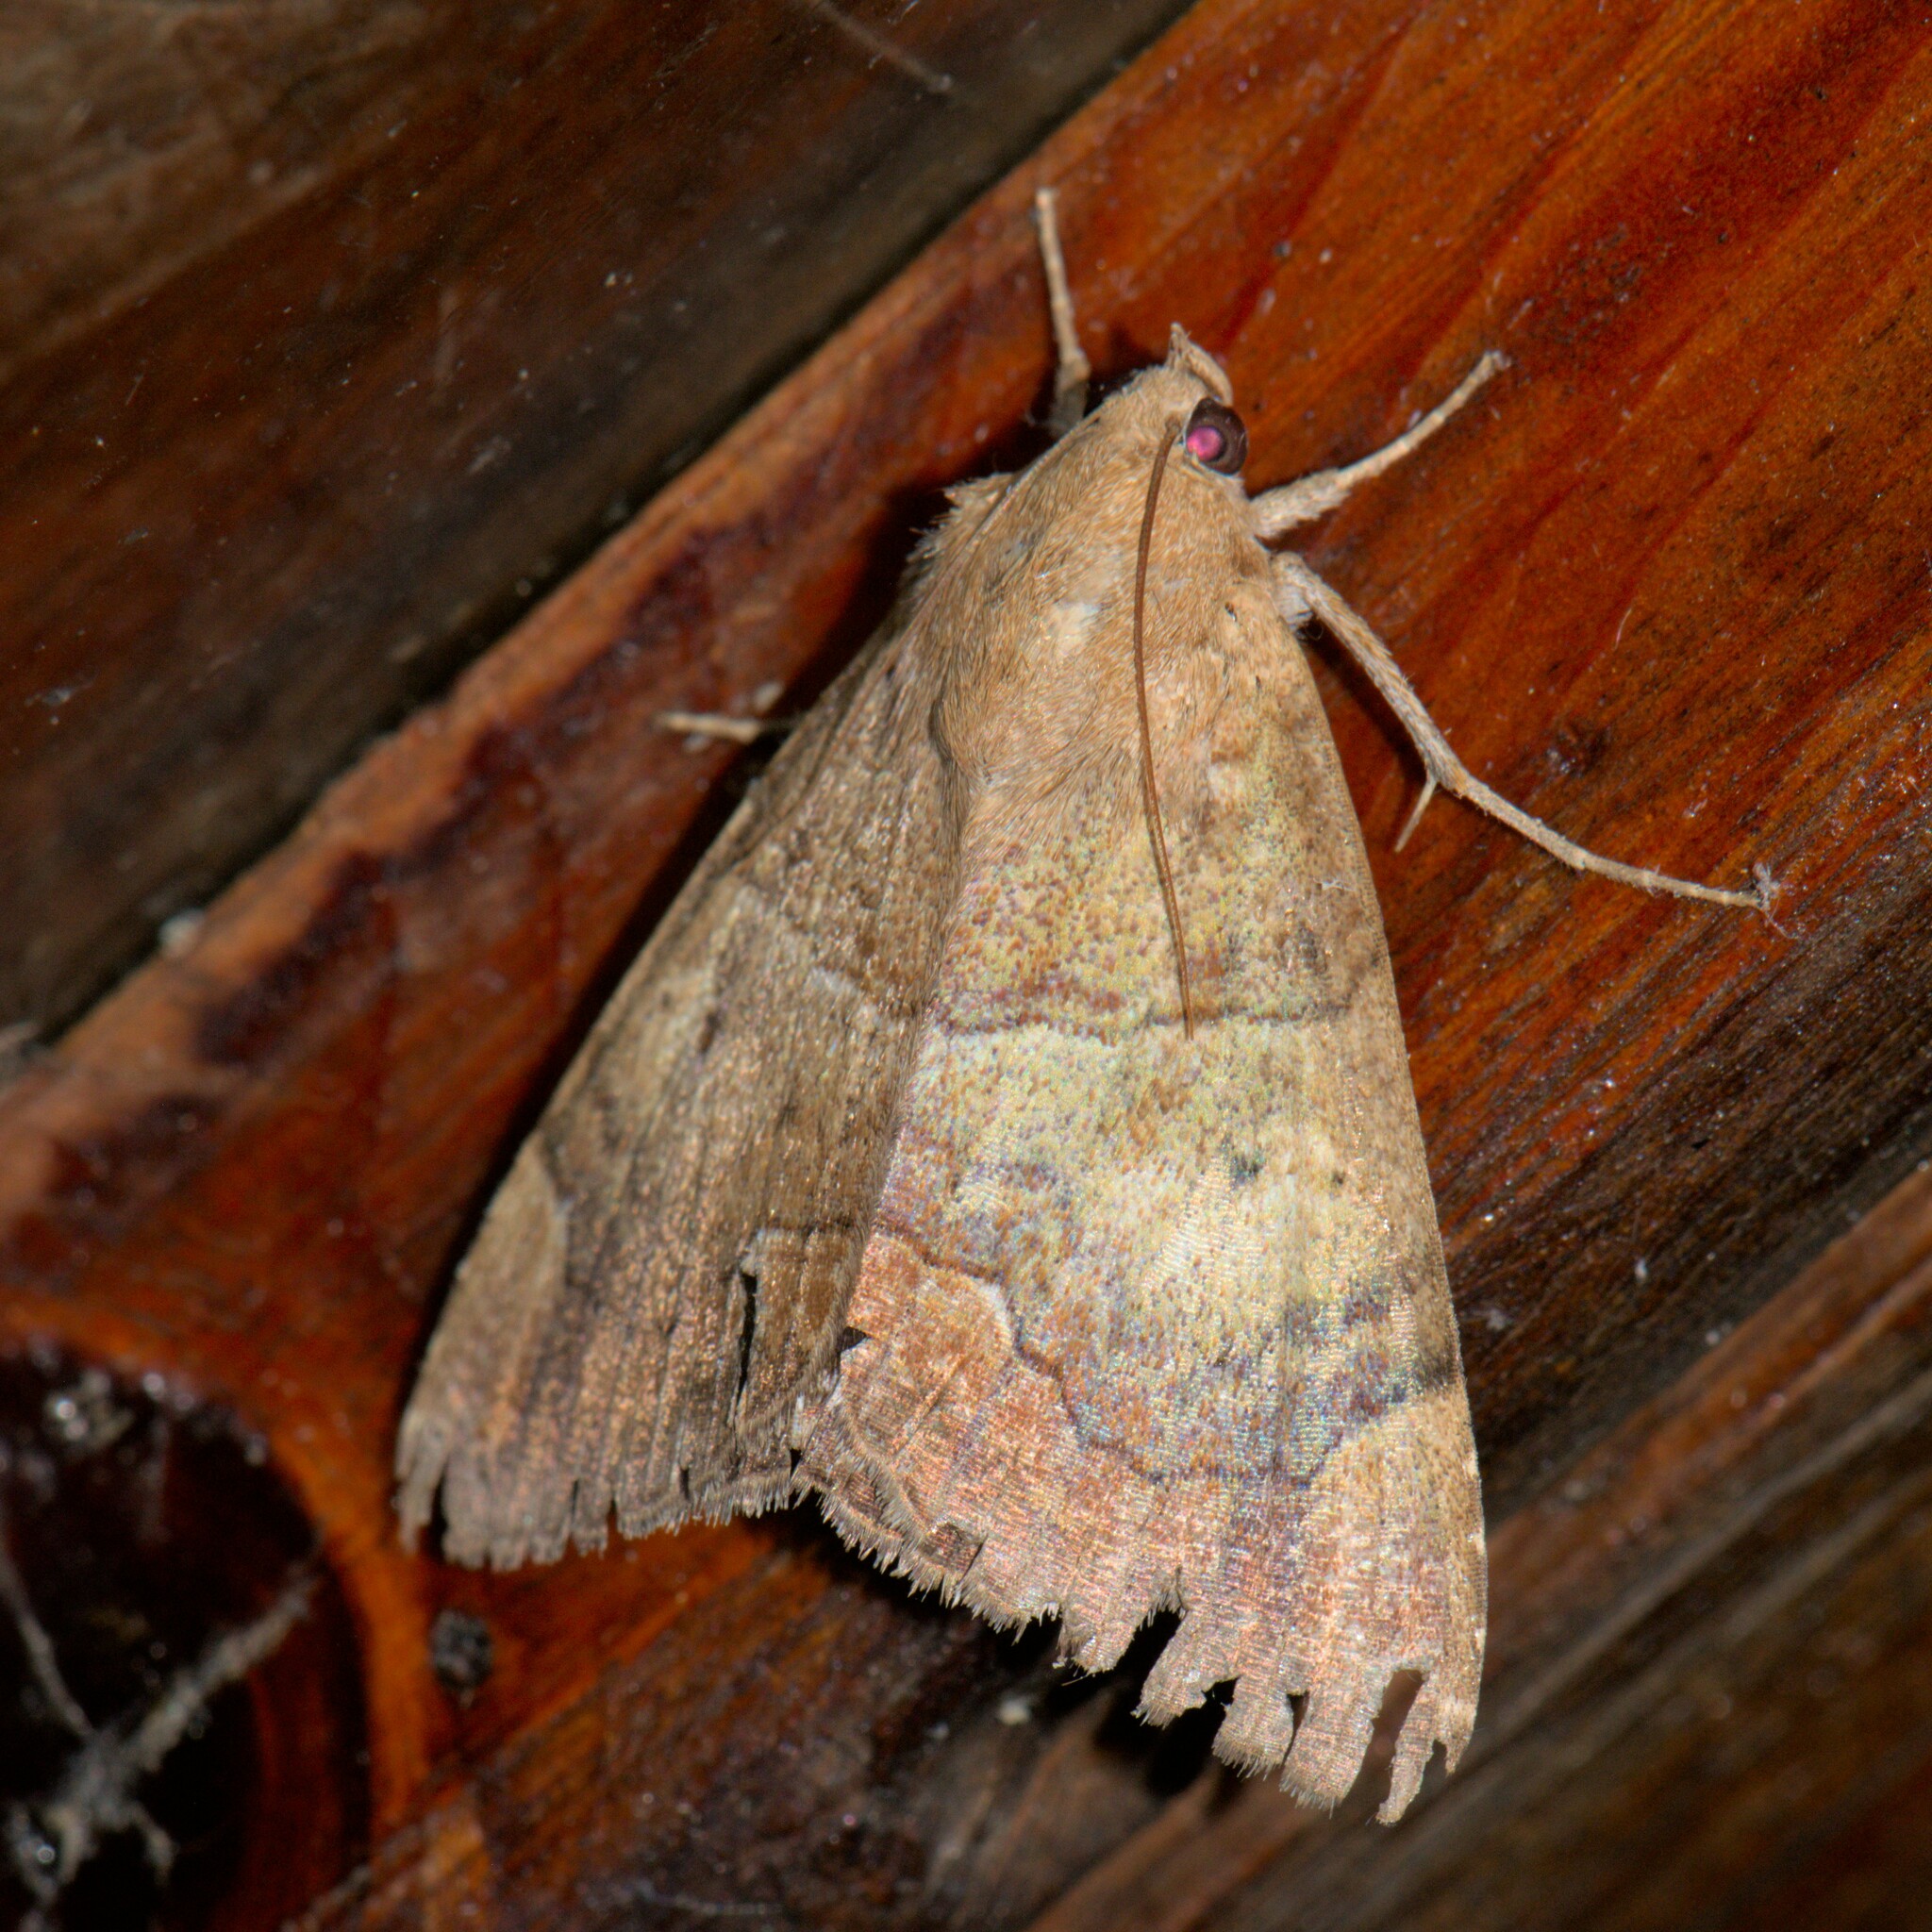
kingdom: Animalia
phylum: Arthropoda
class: Insecta
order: Lepidoptera
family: Erebidae
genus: Achaea
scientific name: Achaea janata
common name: Croton caterpillar
